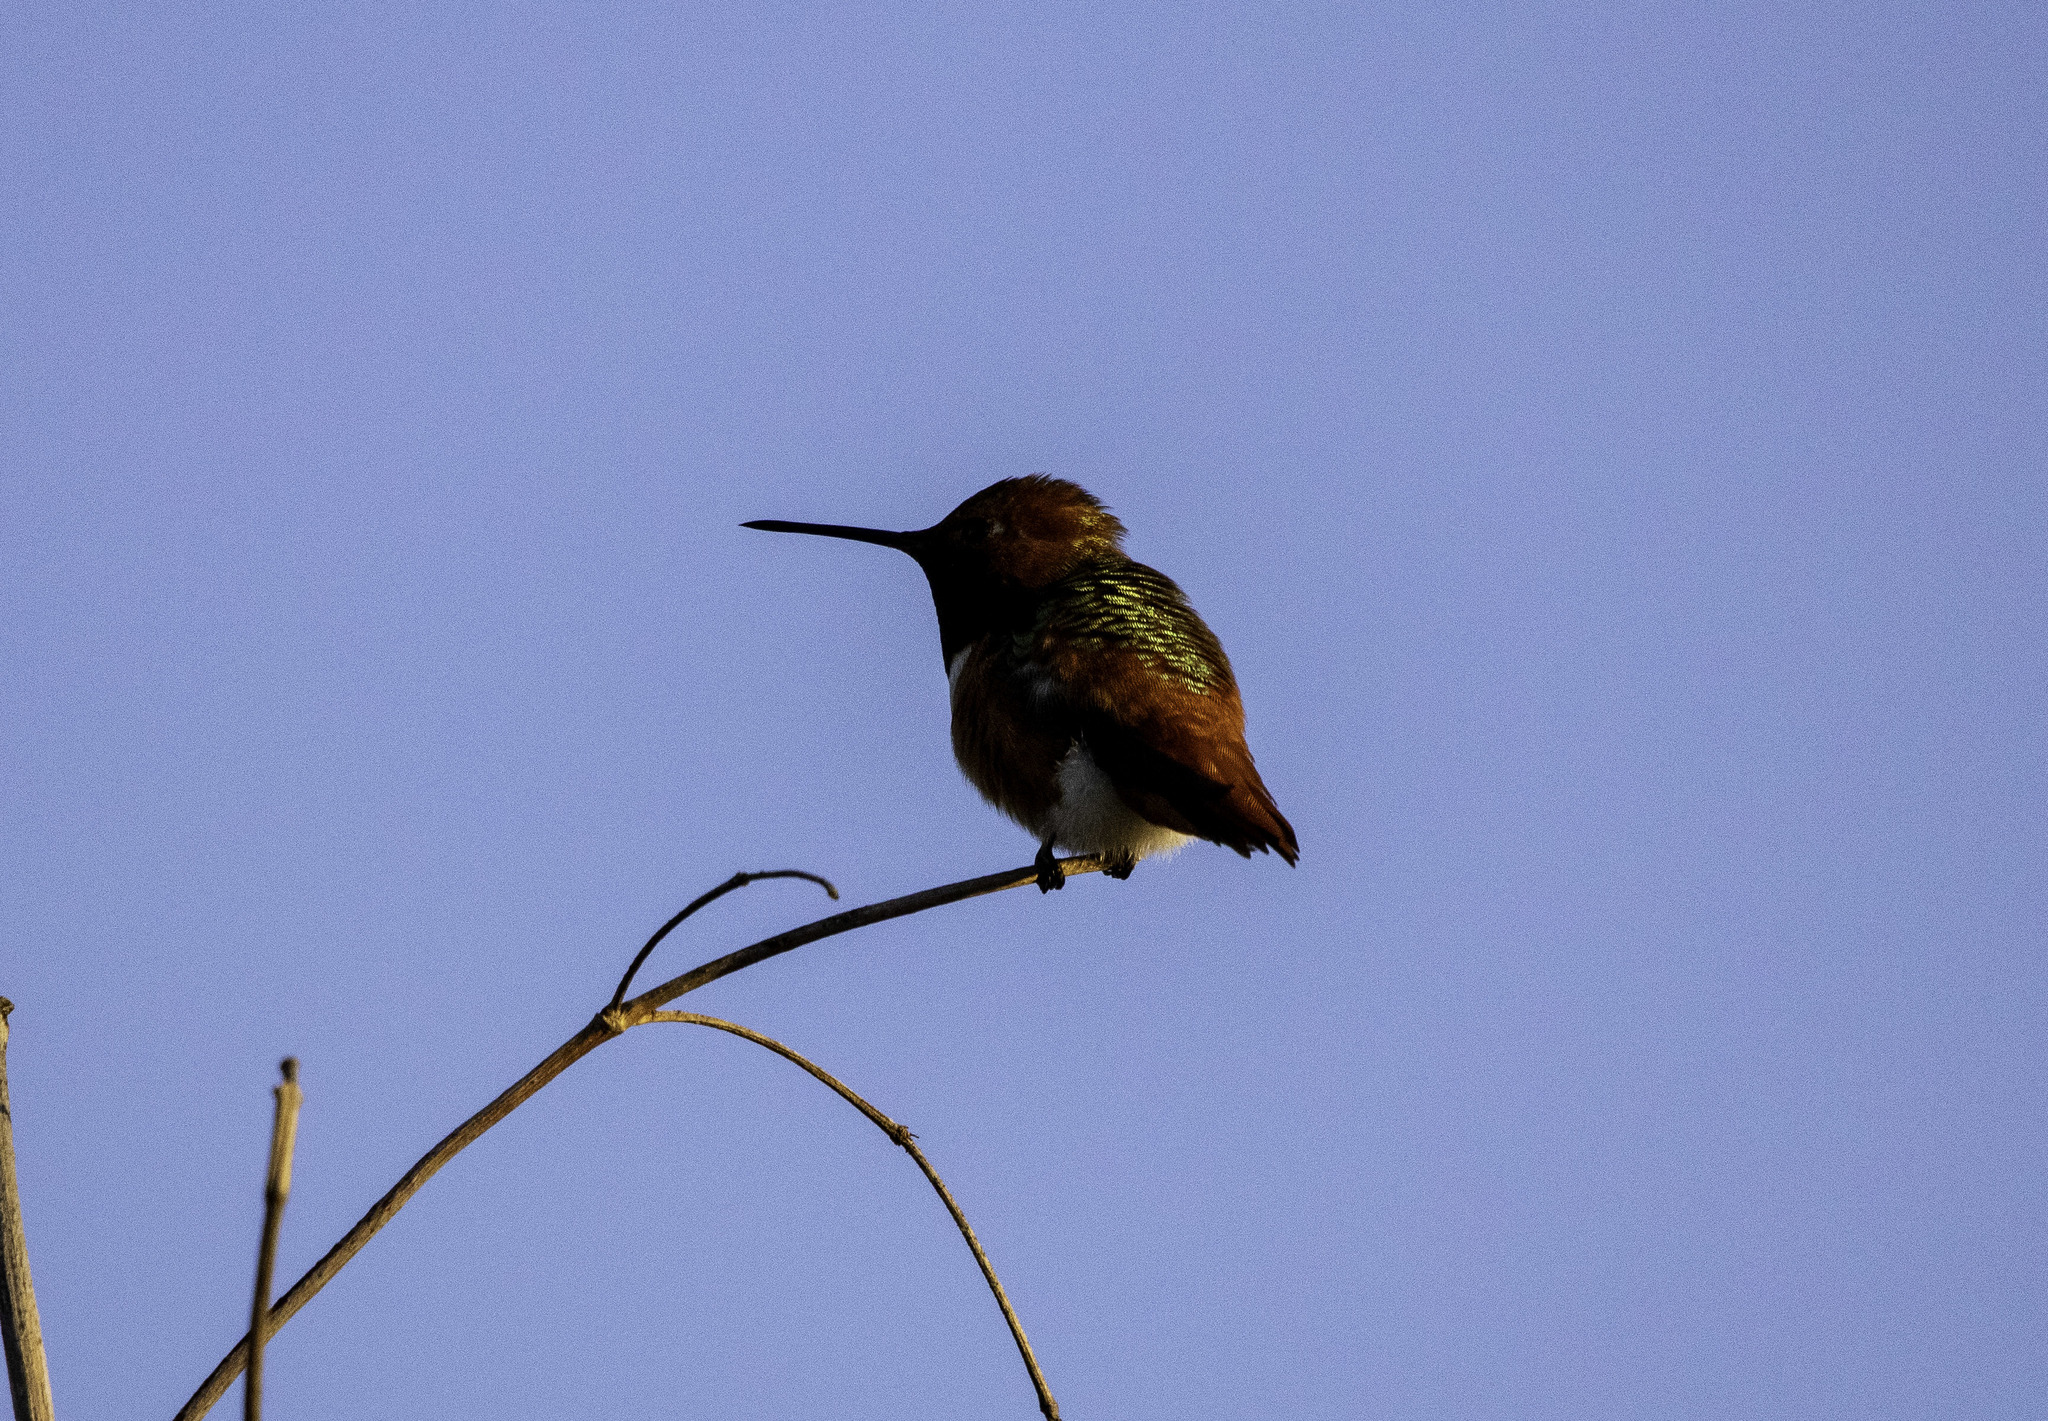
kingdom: Animalia
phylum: Chordata
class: Aves
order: Apodiformes
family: Trochilidae
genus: Selasphorus
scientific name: Selasphorus sasin
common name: Allen's hummingbird
